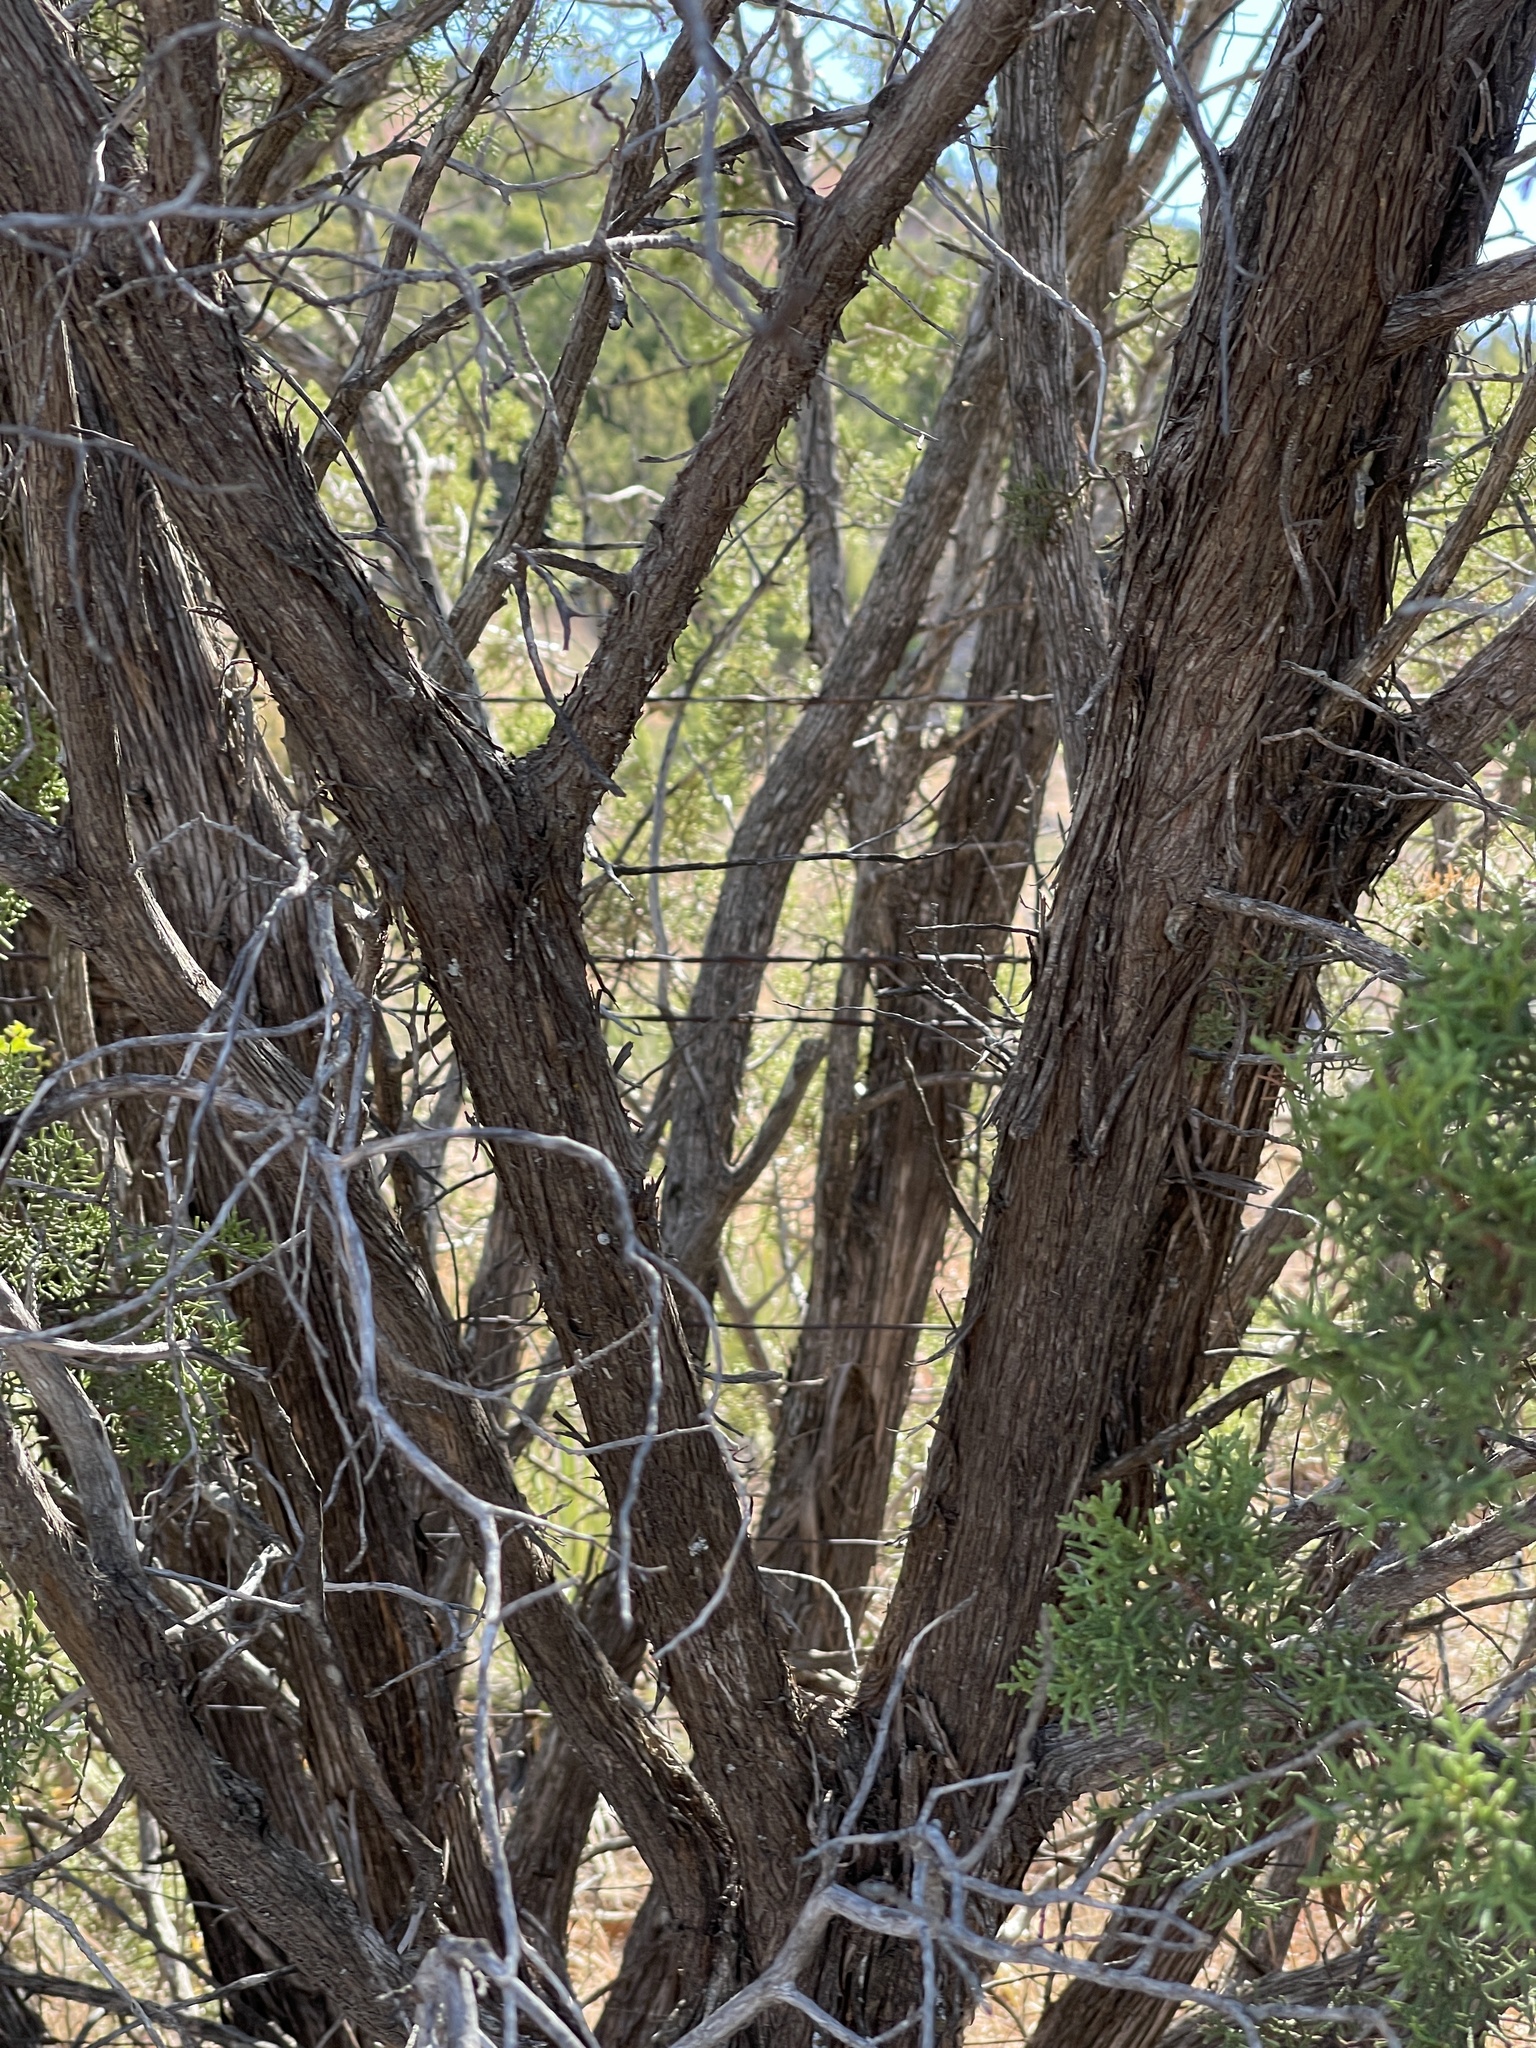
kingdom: Plantae
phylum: Tracheophyta
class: Pinopsida
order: Pinales
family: Cupressaceae
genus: Juniperus
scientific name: Juniperus pinchotii
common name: Pinchot juniper
